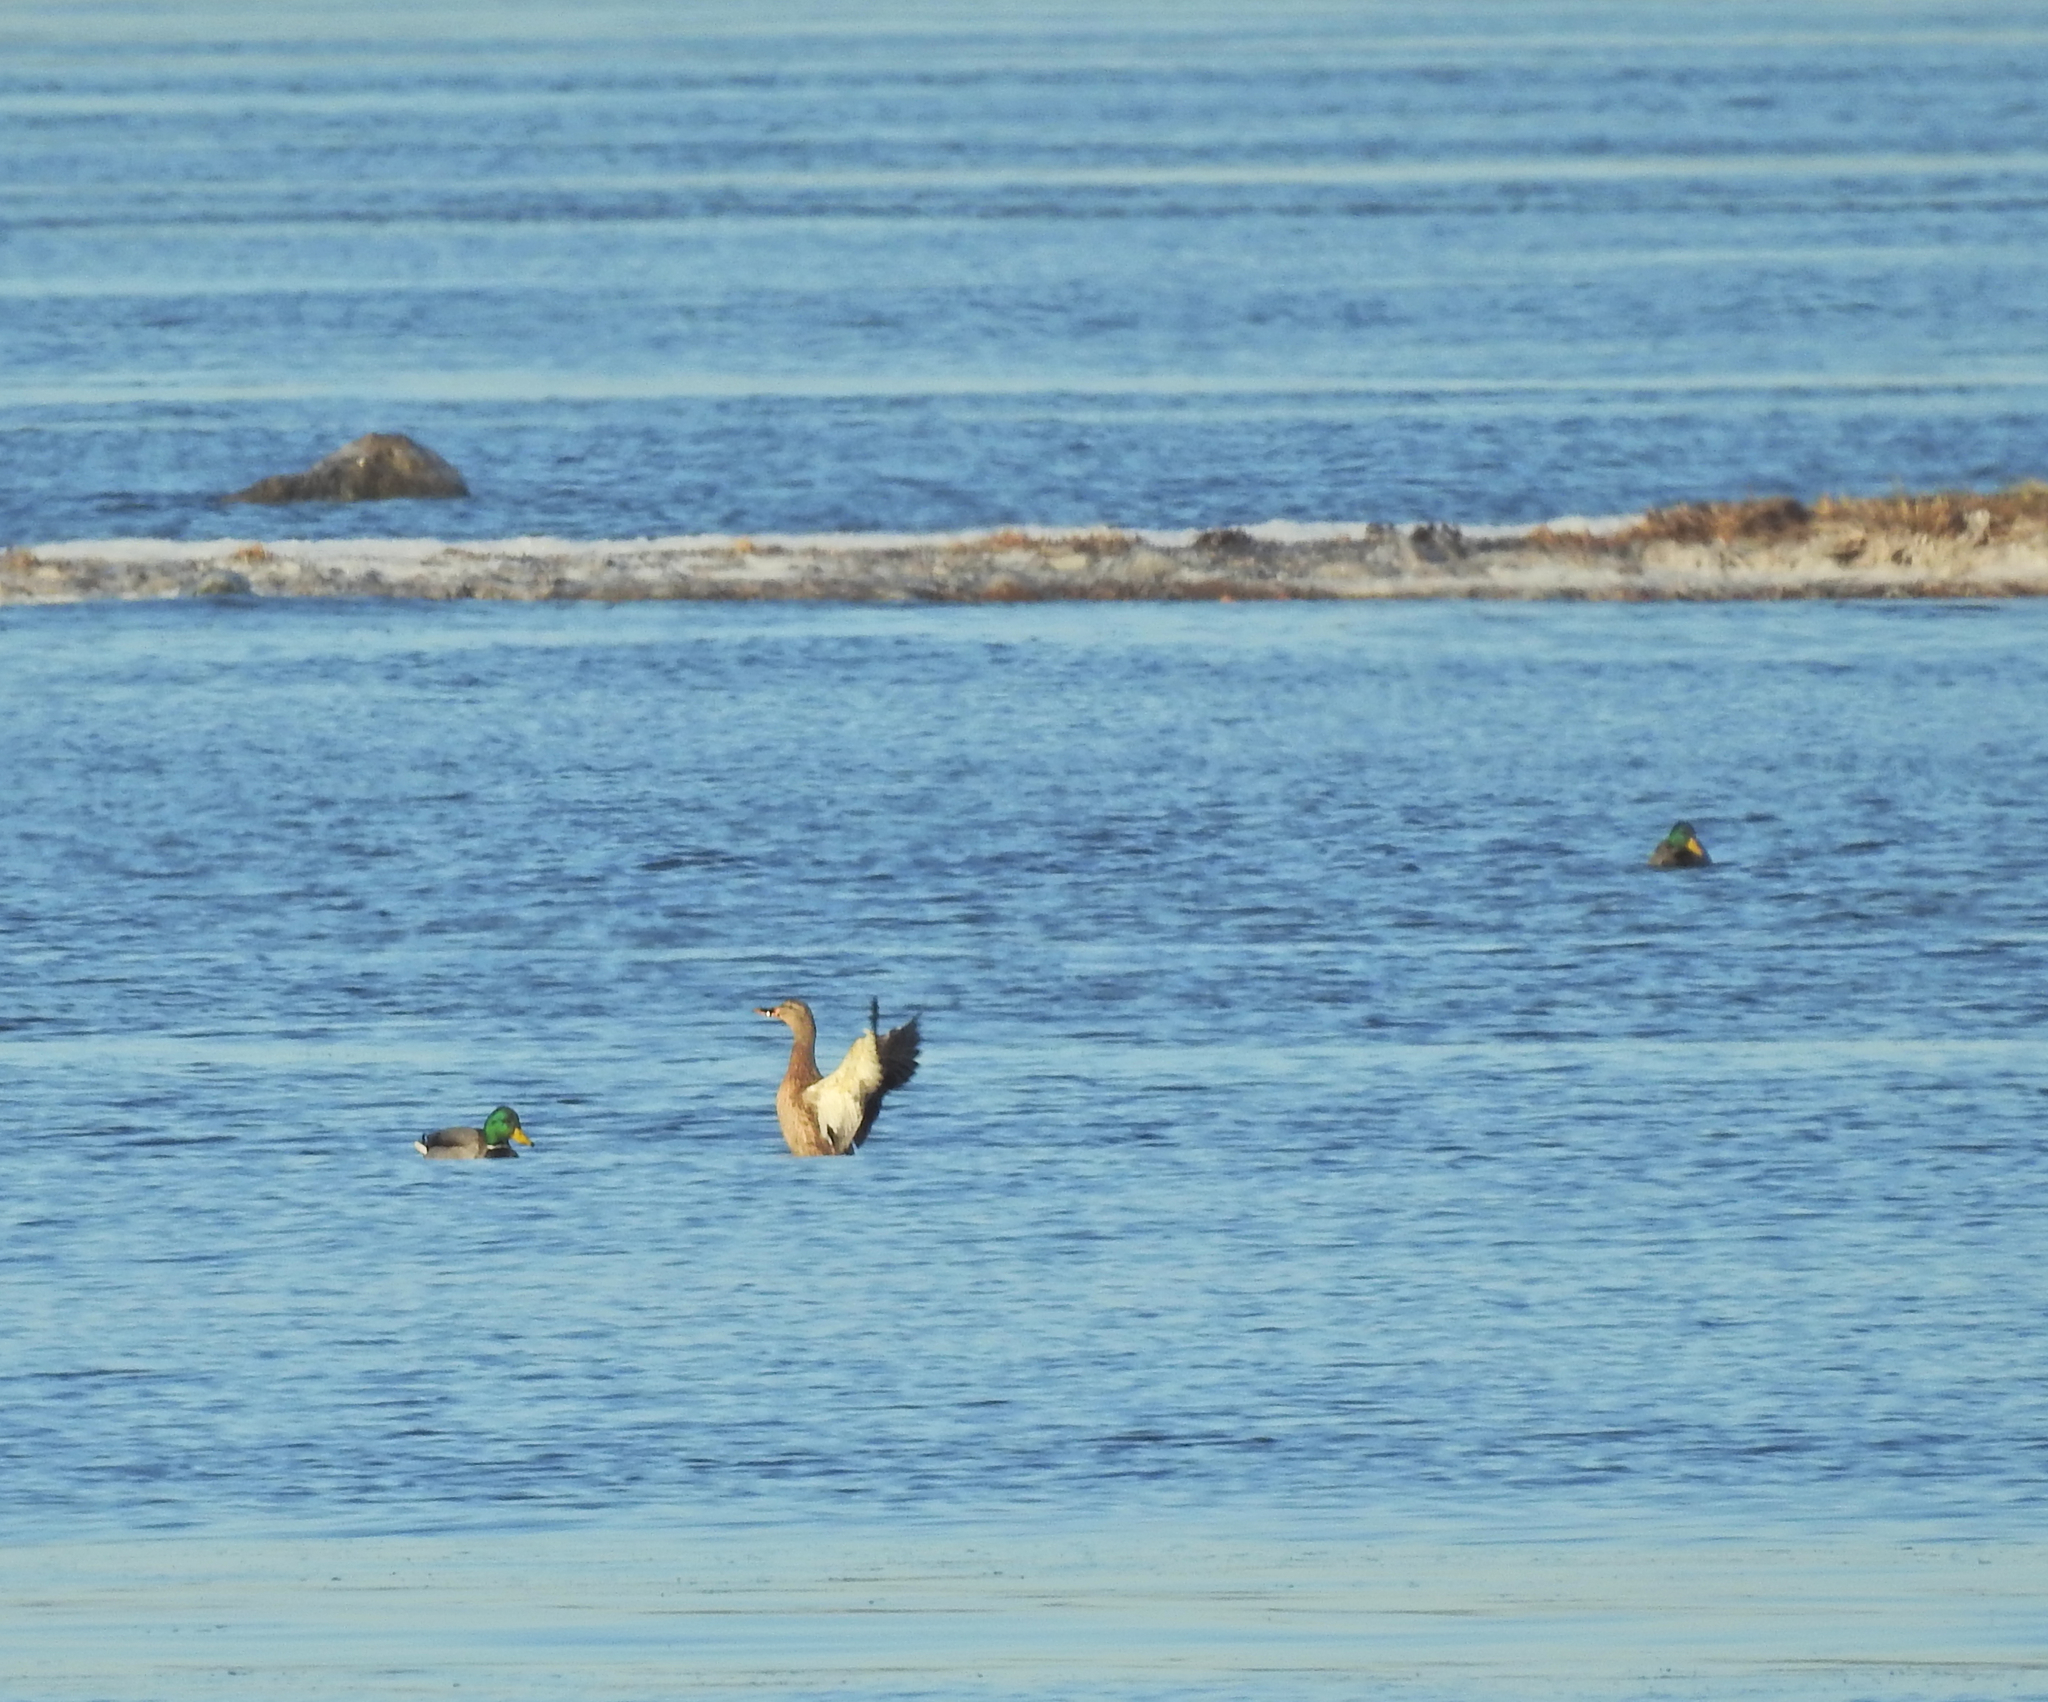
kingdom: Animalia
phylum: Chordata
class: Aves
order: Anseriformes
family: Anatidae
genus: Anas
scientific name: Anas platyrhynchos
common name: Mallard
